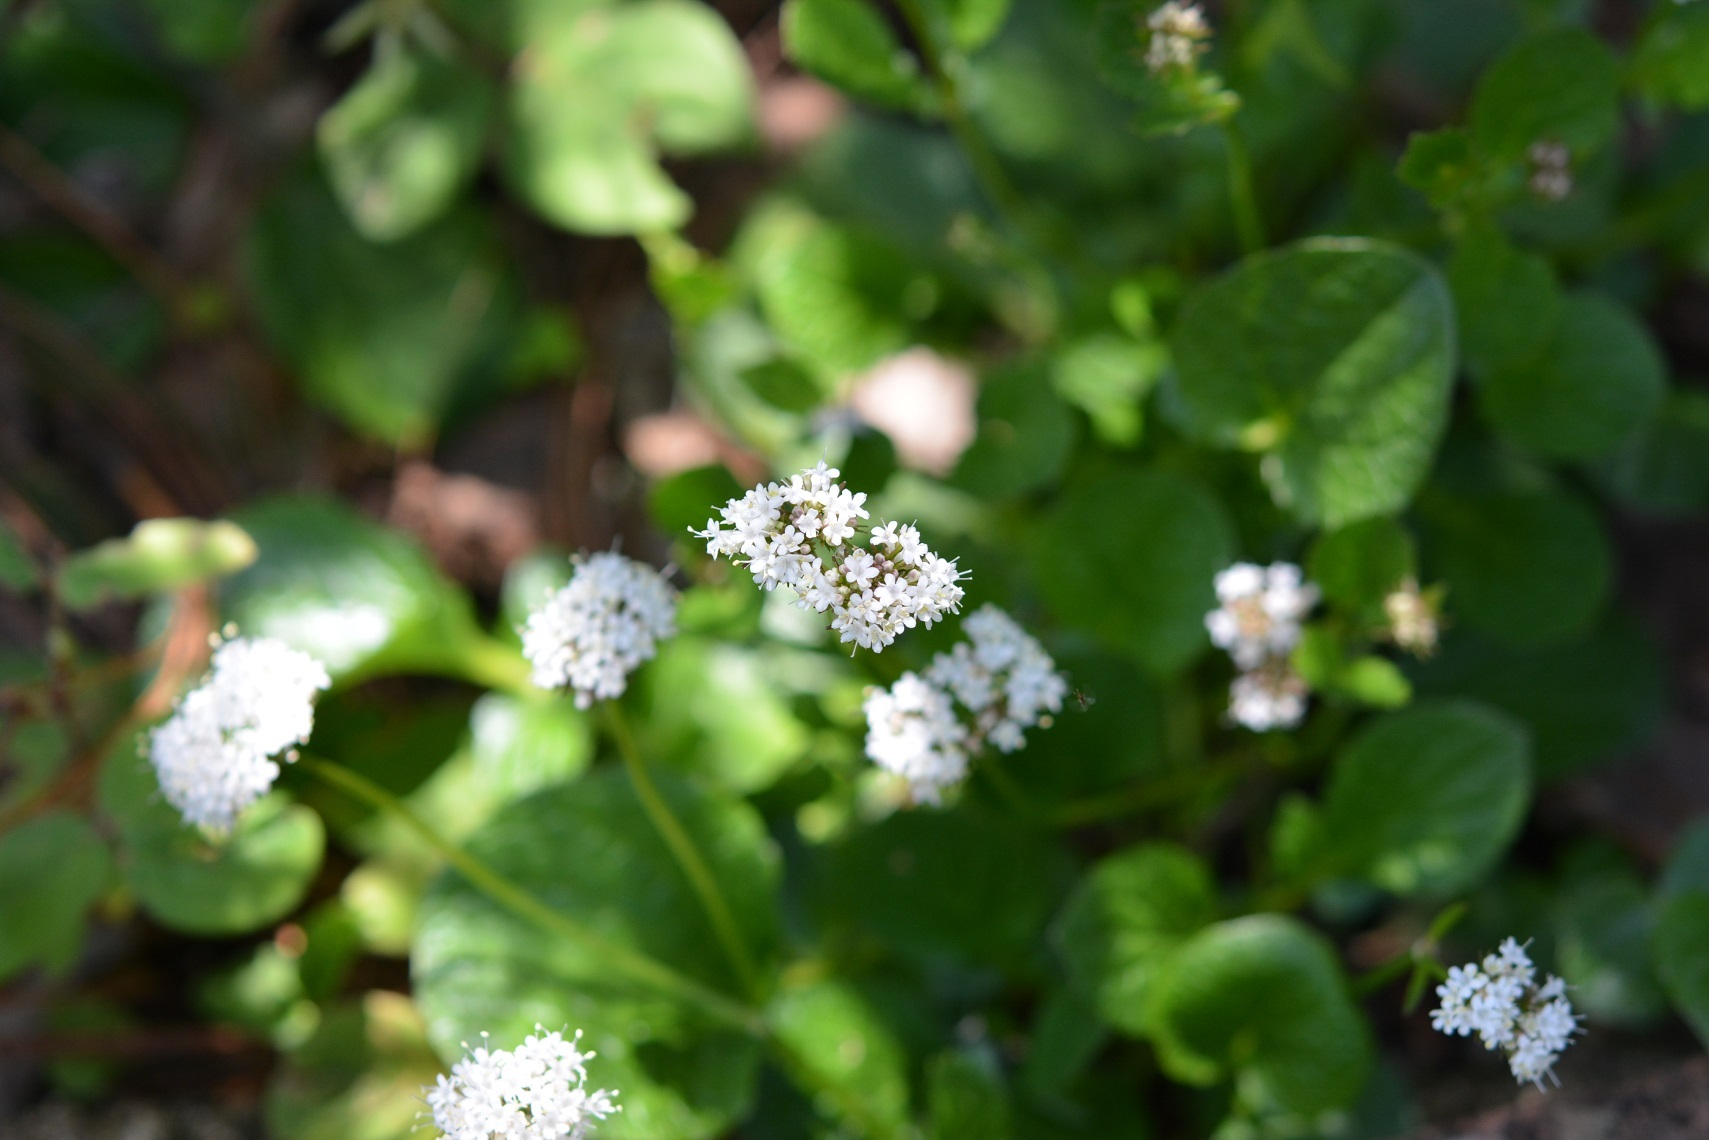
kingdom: Plantae
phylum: Tracheophyta
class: Magnoliopsida
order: Dipsacales
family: Caprifoliaceae
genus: Valeriana
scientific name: Valeriana tzotziliana
